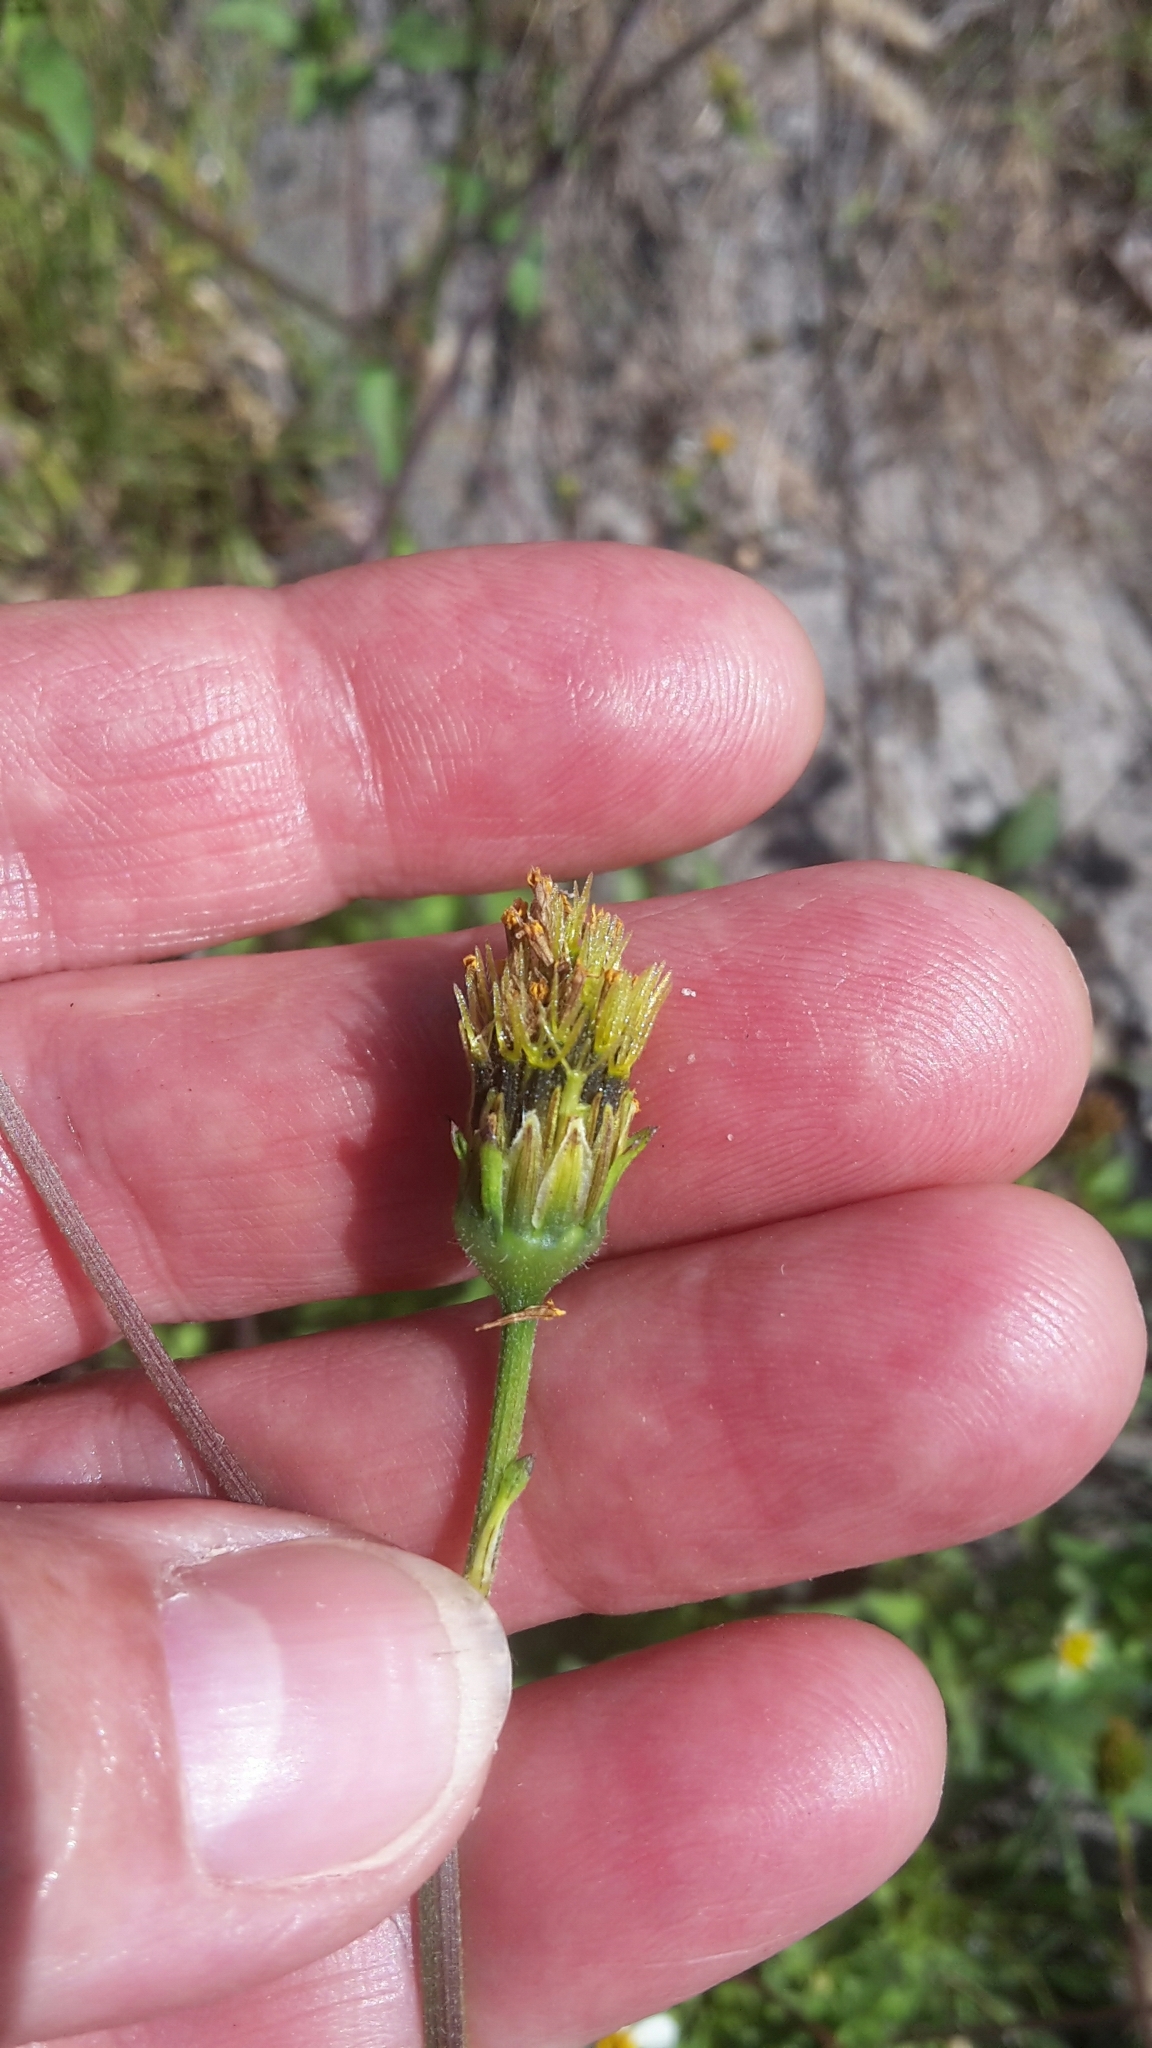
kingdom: Plantae
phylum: Tracheophyta
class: Magnoliopsida
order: Asterales
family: Asteraceae
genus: Bidens
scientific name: Bidens pilosa
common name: Black-jack
